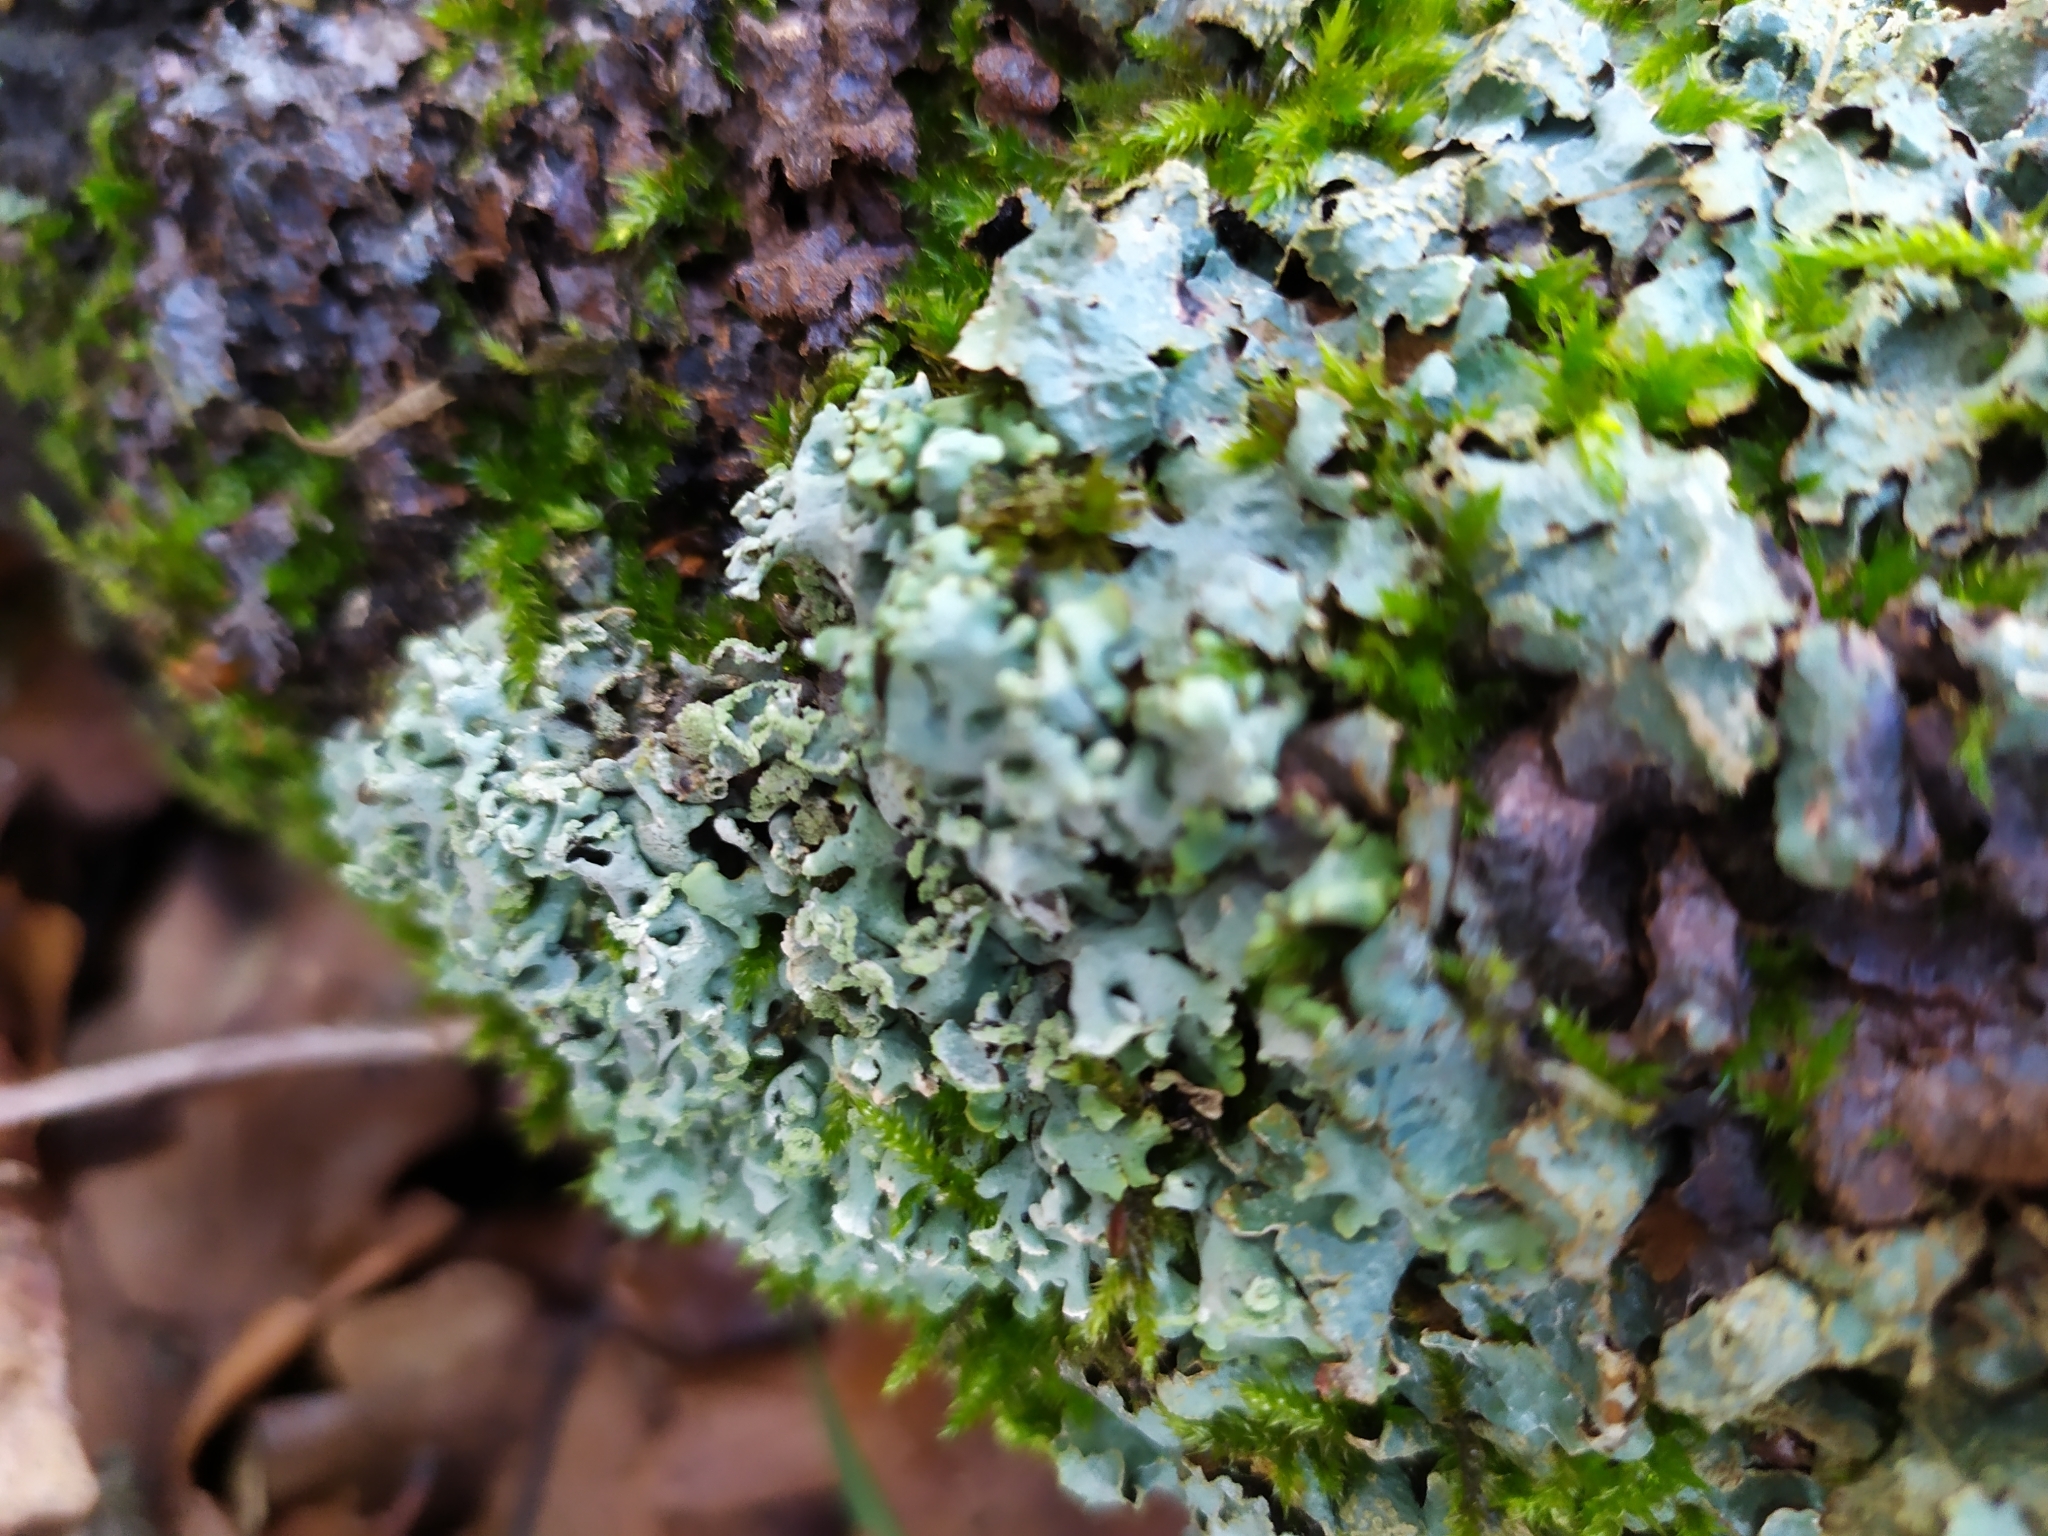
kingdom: Fungi
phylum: Ascomycota
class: Lecanoromycetes
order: Lecanorales
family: Parmeliaceae
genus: Parmelia
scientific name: Parmelia sulcata
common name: Netted shield lichen
